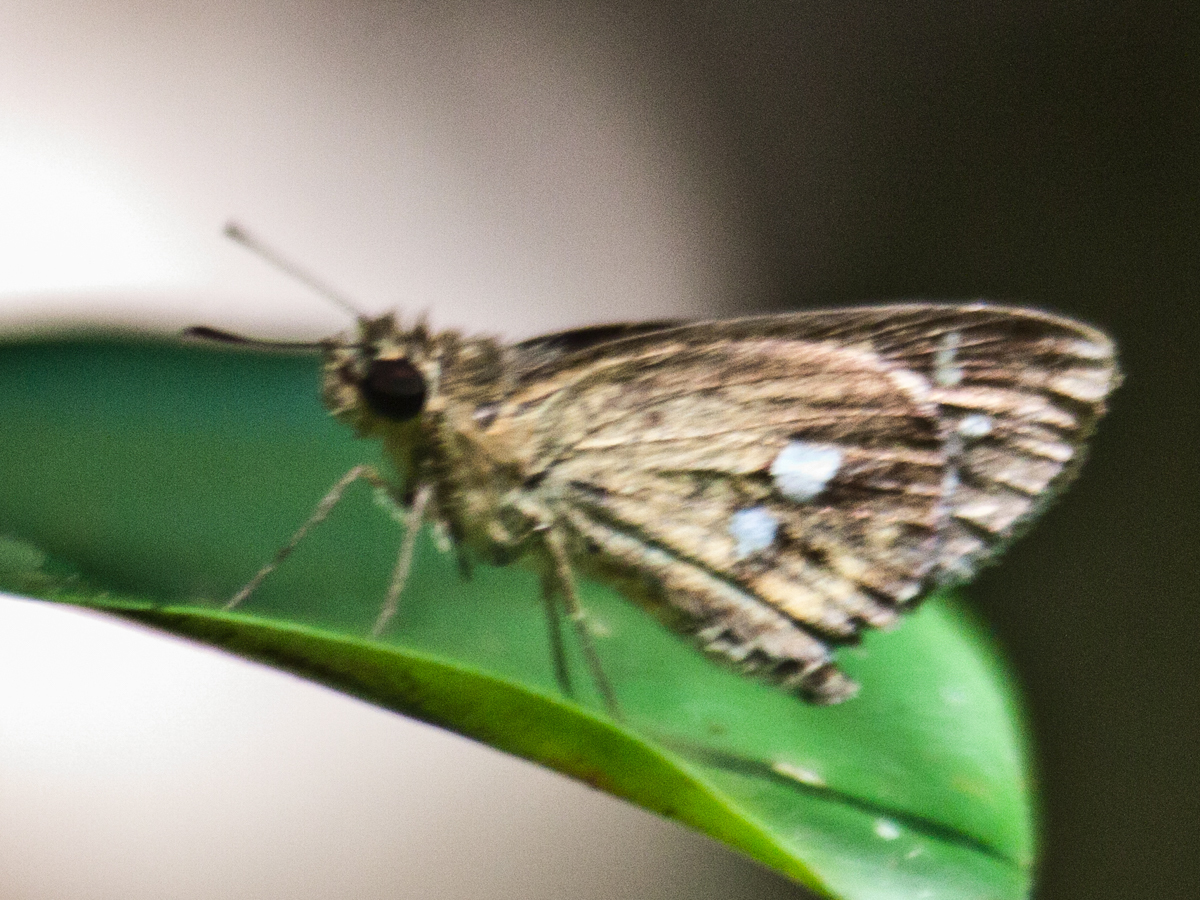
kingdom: Animalia
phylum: Arthropoda
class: Insecta
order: Lepidoptera
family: Hesperiidae
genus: Scobura
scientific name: Scobura isota
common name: Swinhoe's forest bob
